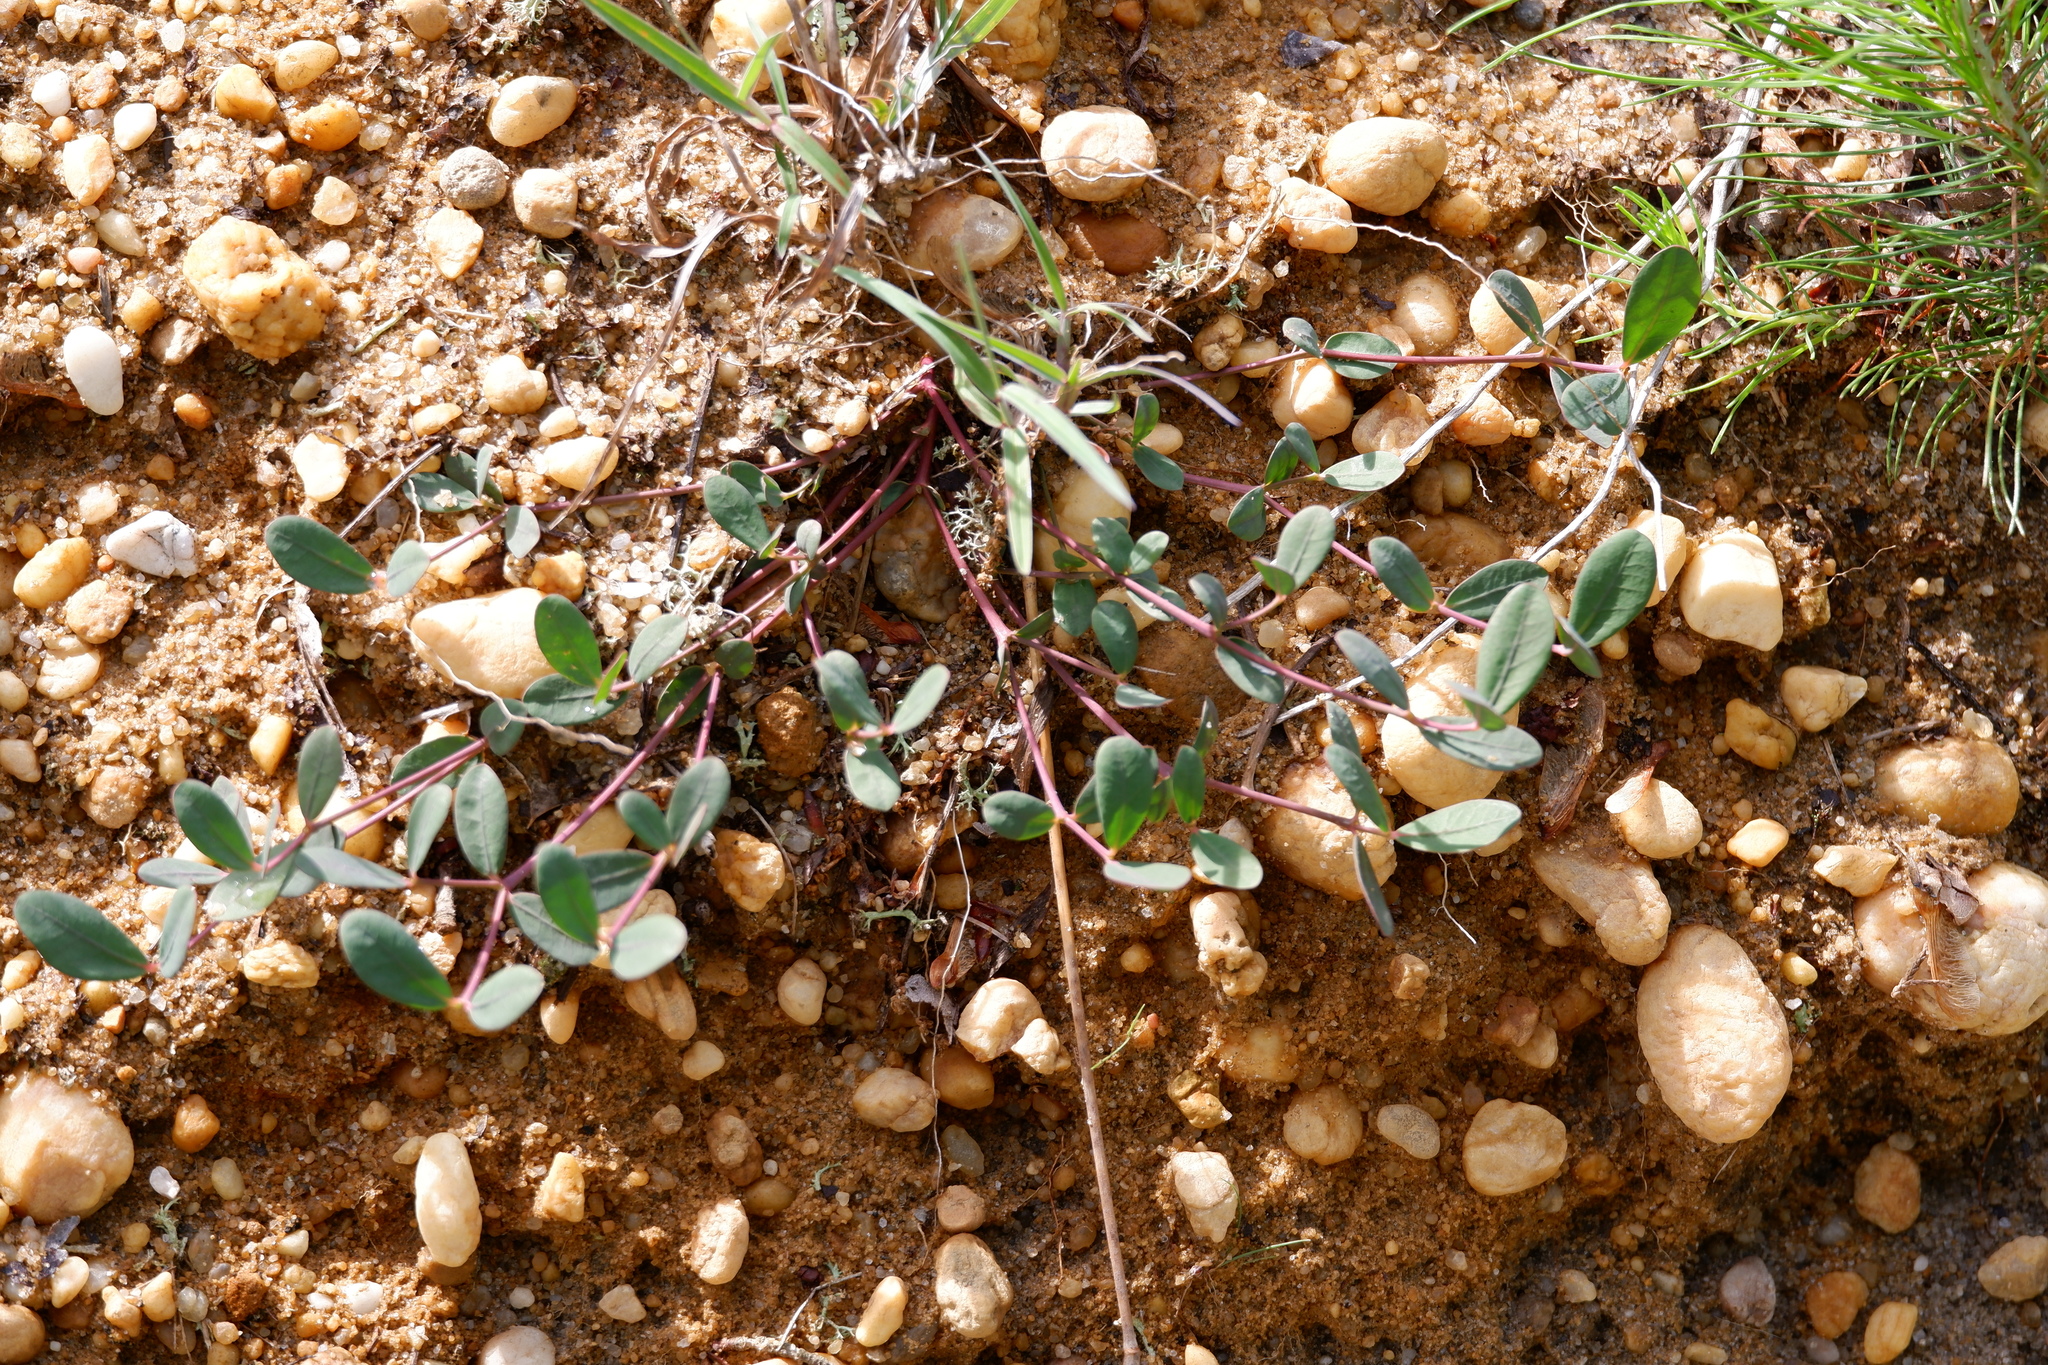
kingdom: Plantae
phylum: Tracheophyta
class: Magnoliopsida
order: Malpighiales
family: Euphorbiaceae
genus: Euphorbia
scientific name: Euphorbia ipecacuanhae
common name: Carolina ipecac
